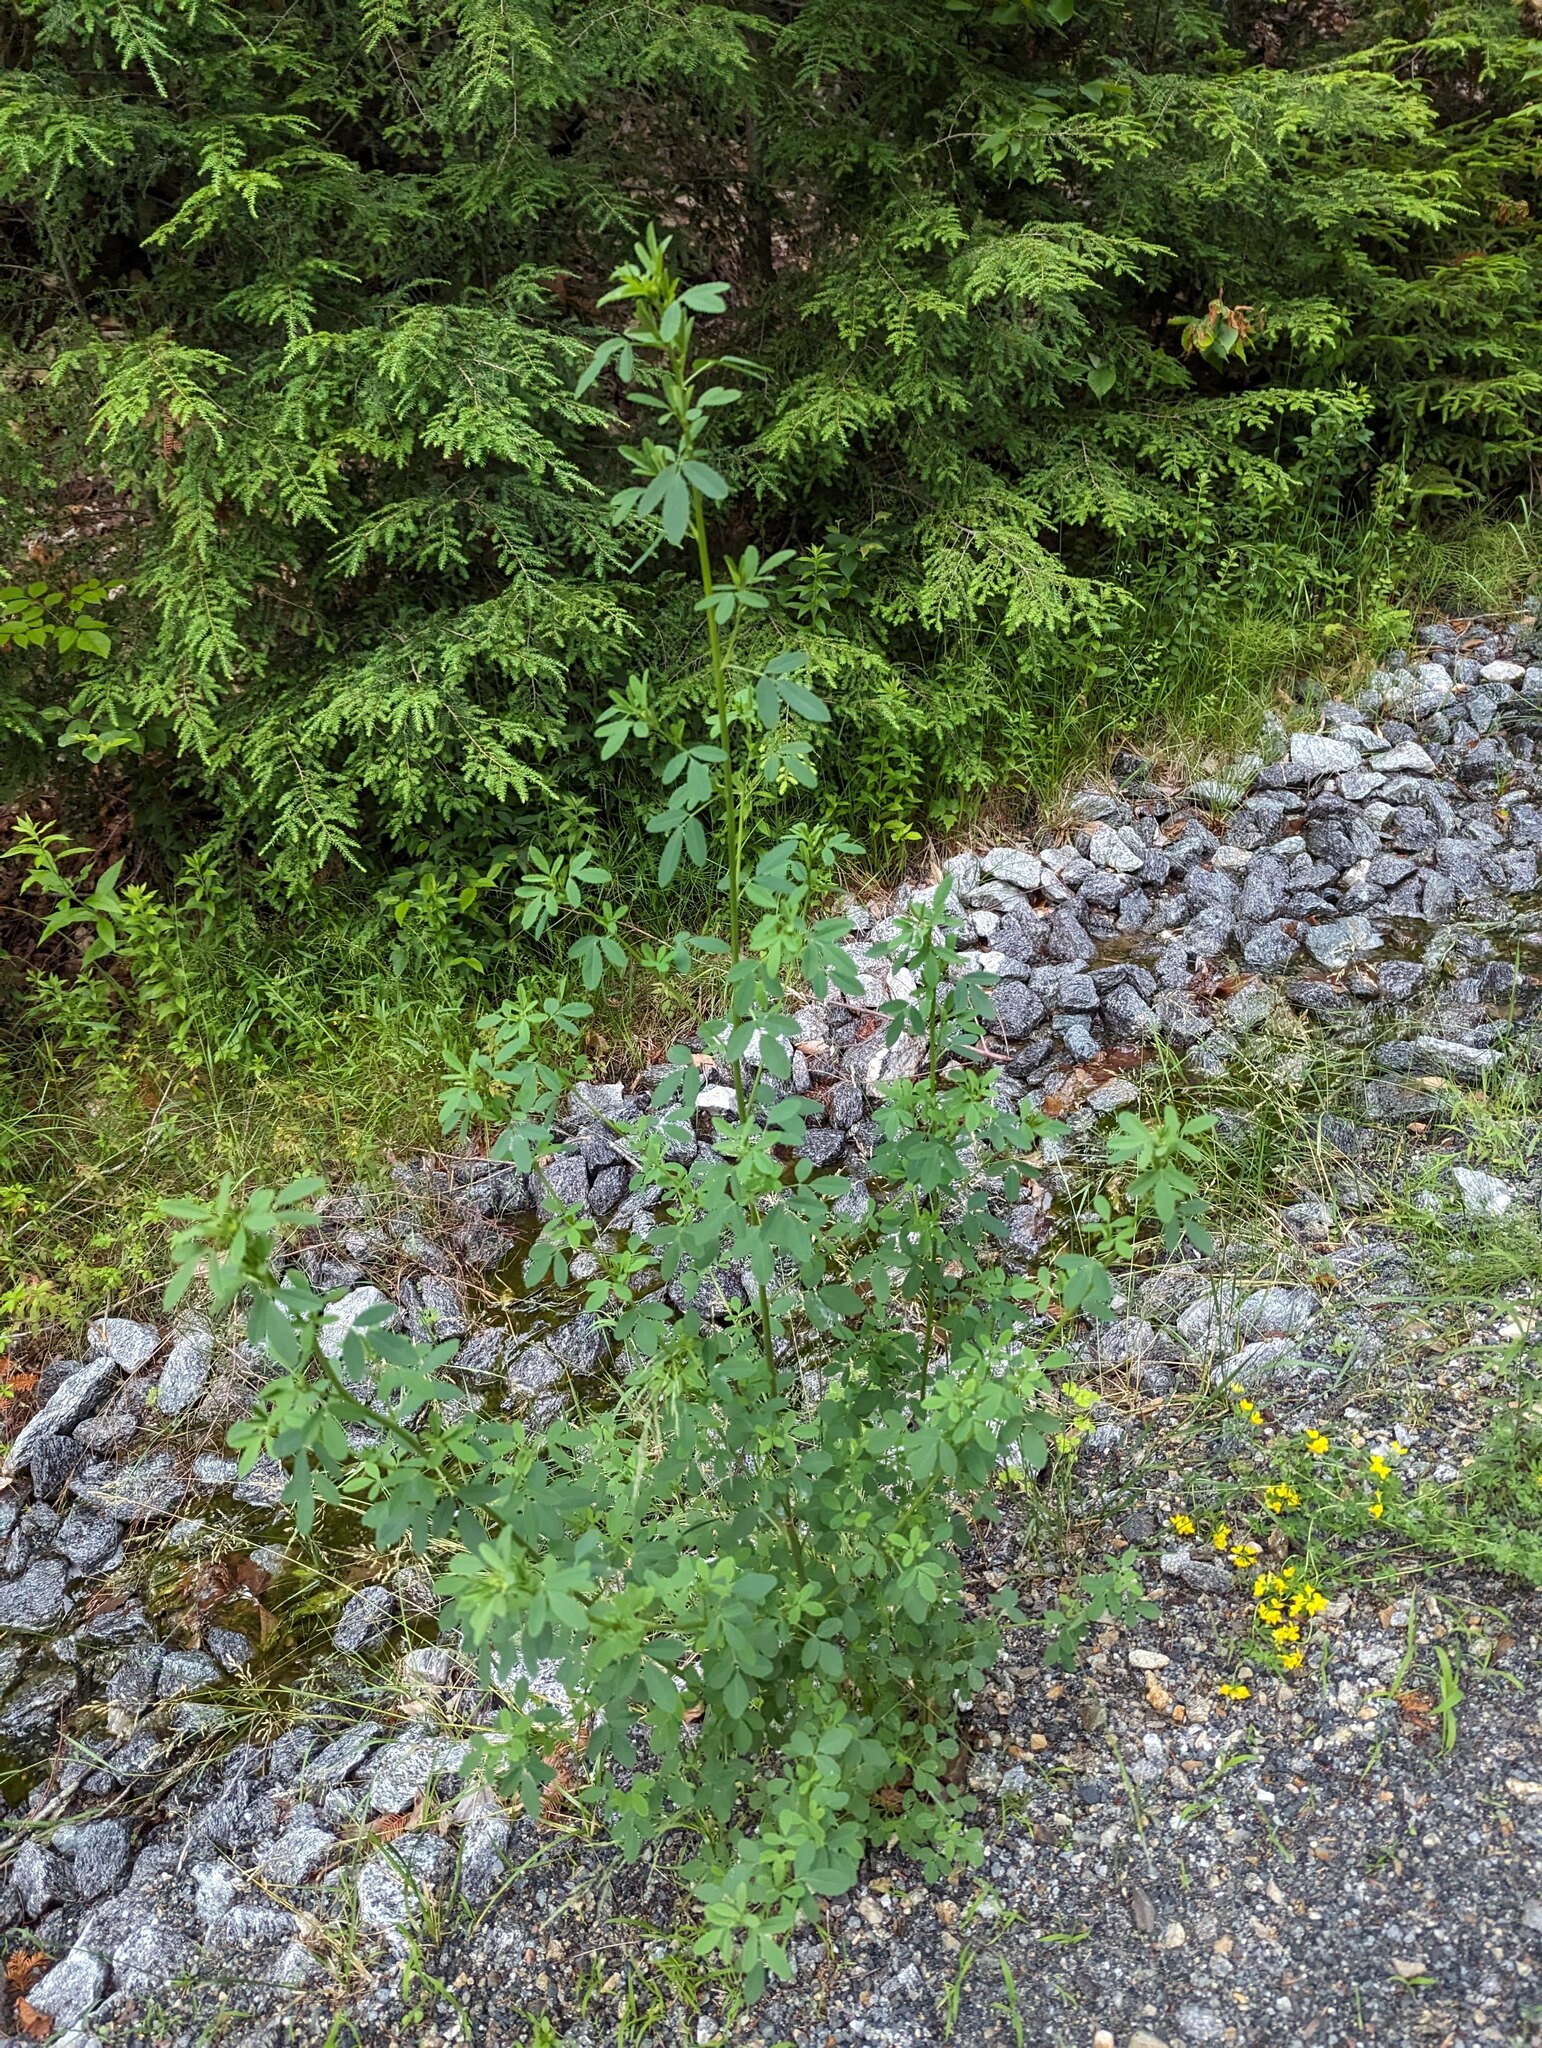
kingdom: Plantae
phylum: Tracheophyta
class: Magnoliopsida
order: Fabales
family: Fabaceae
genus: Melilotus
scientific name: Melilotus albus
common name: White melilot
